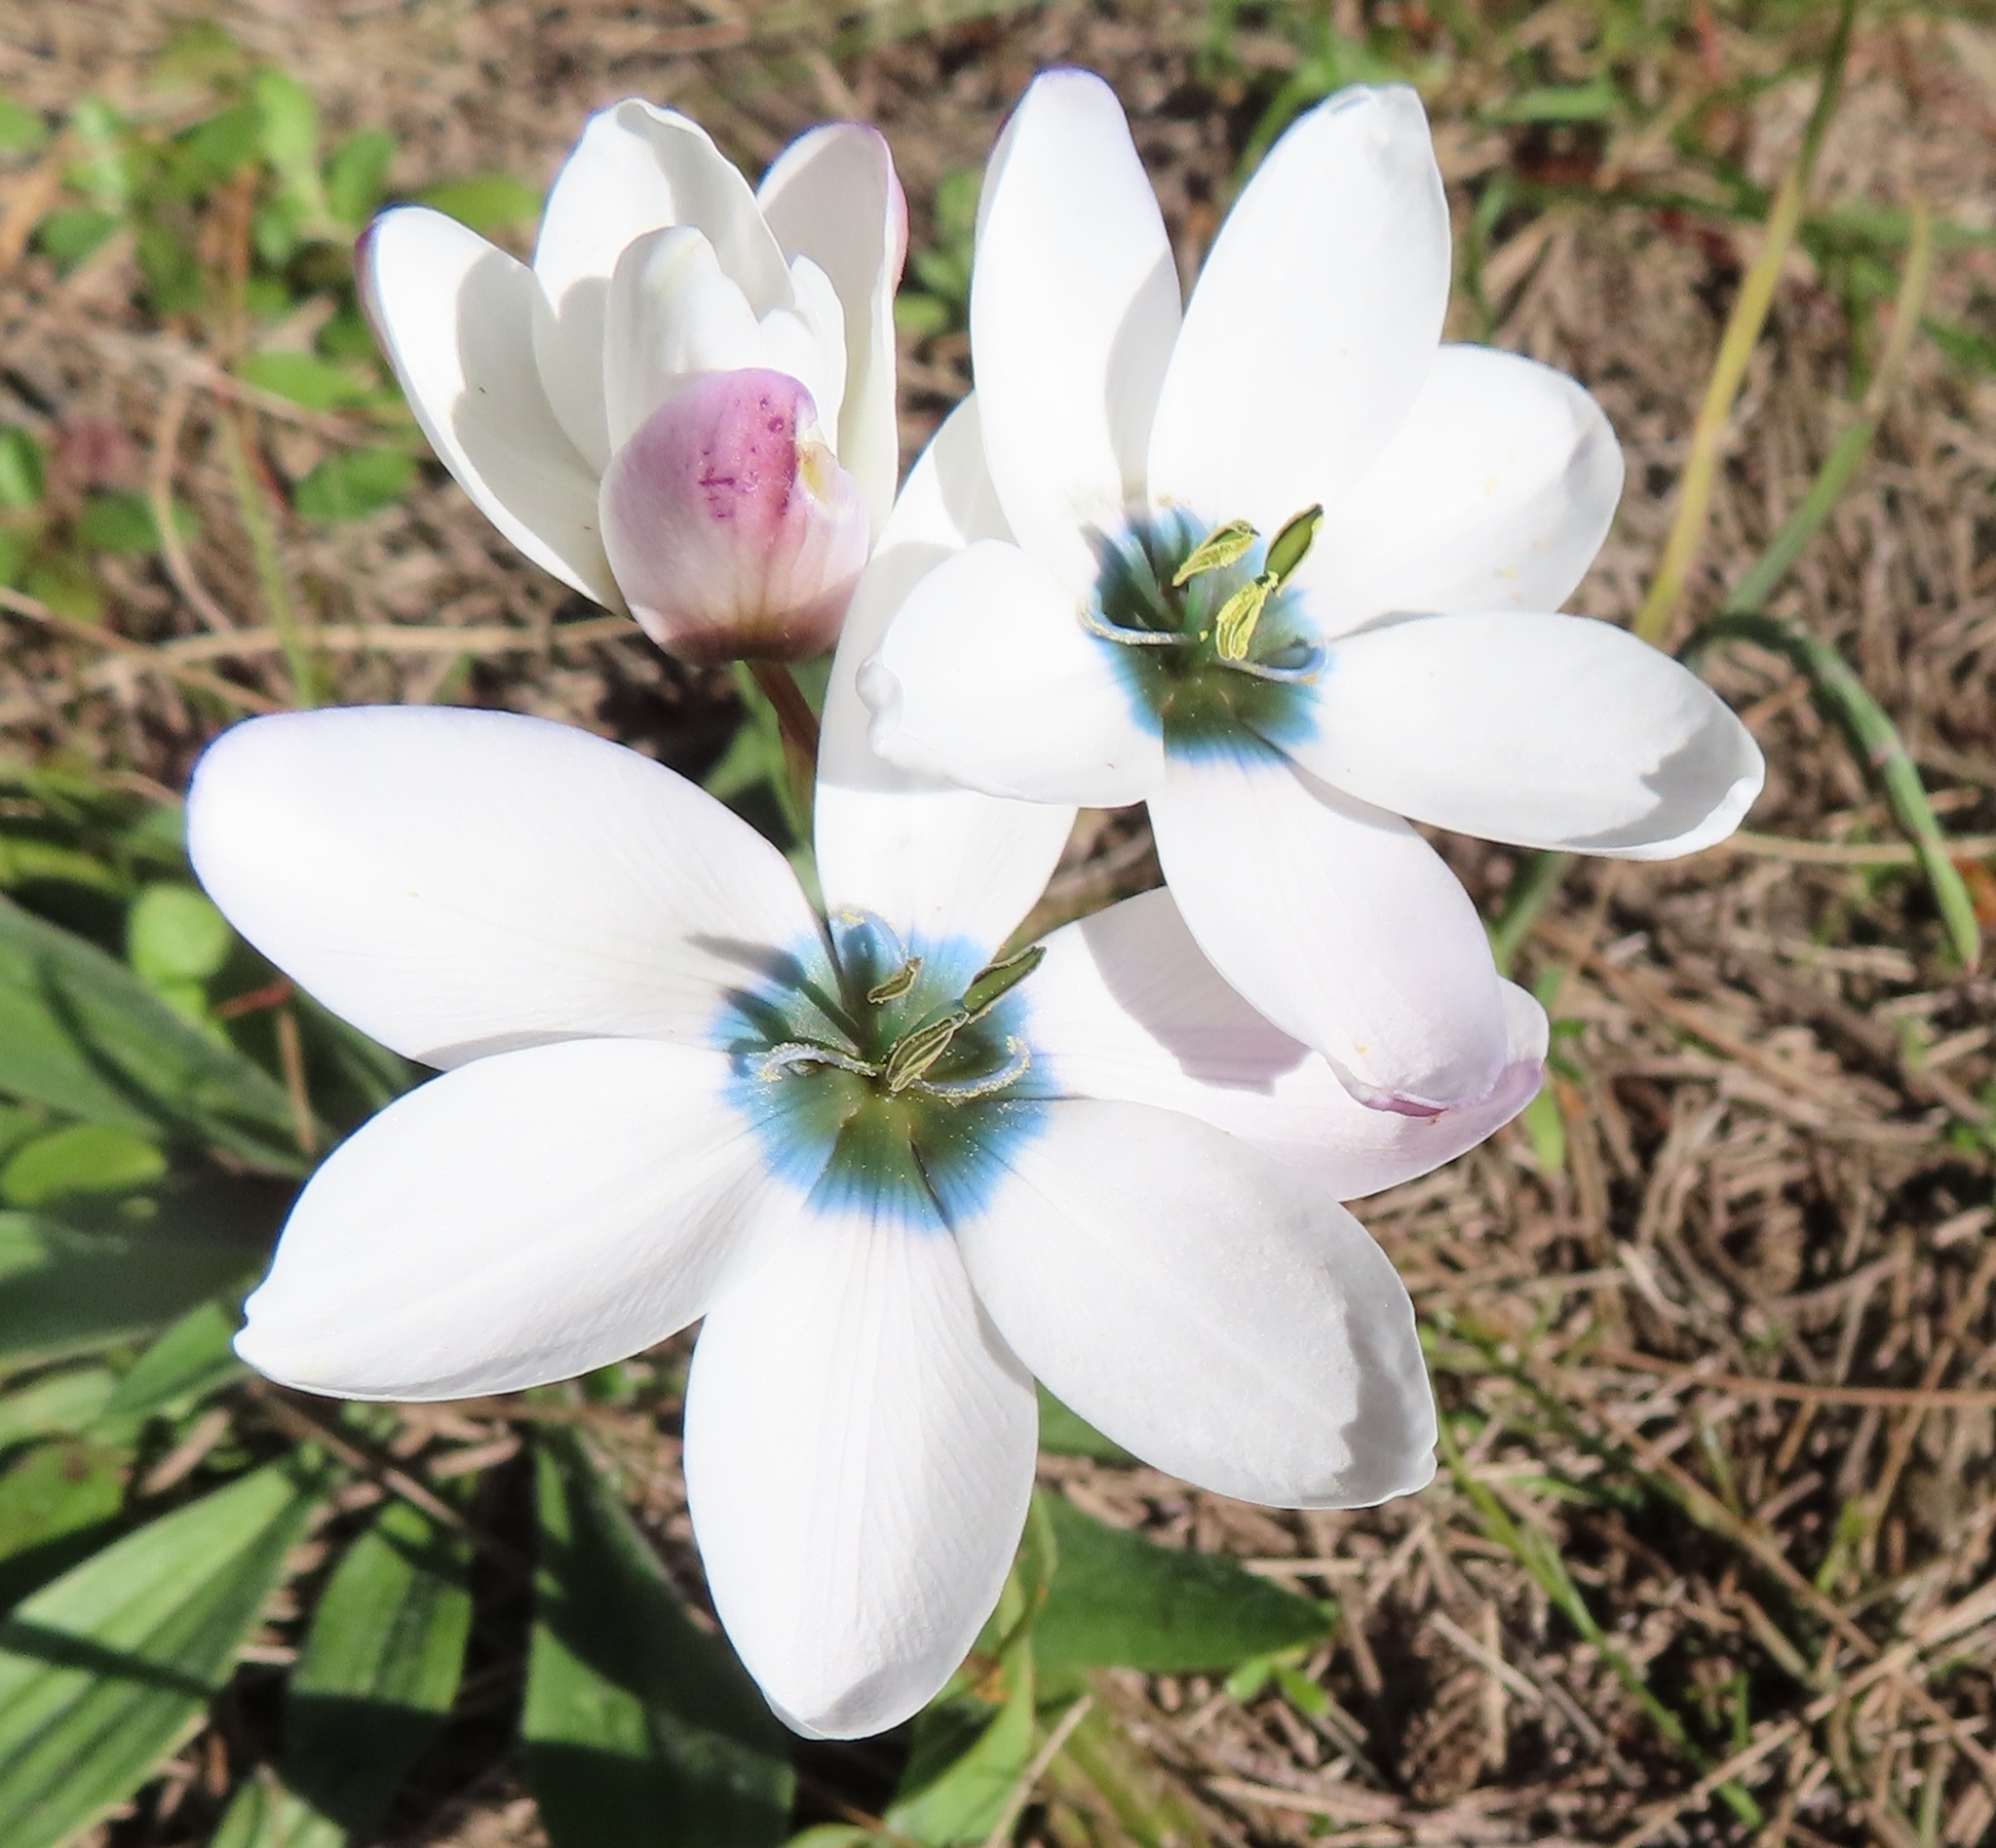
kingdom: Plantae
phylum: Tracheophyta
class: Liliopsida
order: Asparagales
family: Iridaceae
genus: Ixia
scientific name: Ixia versicolor
